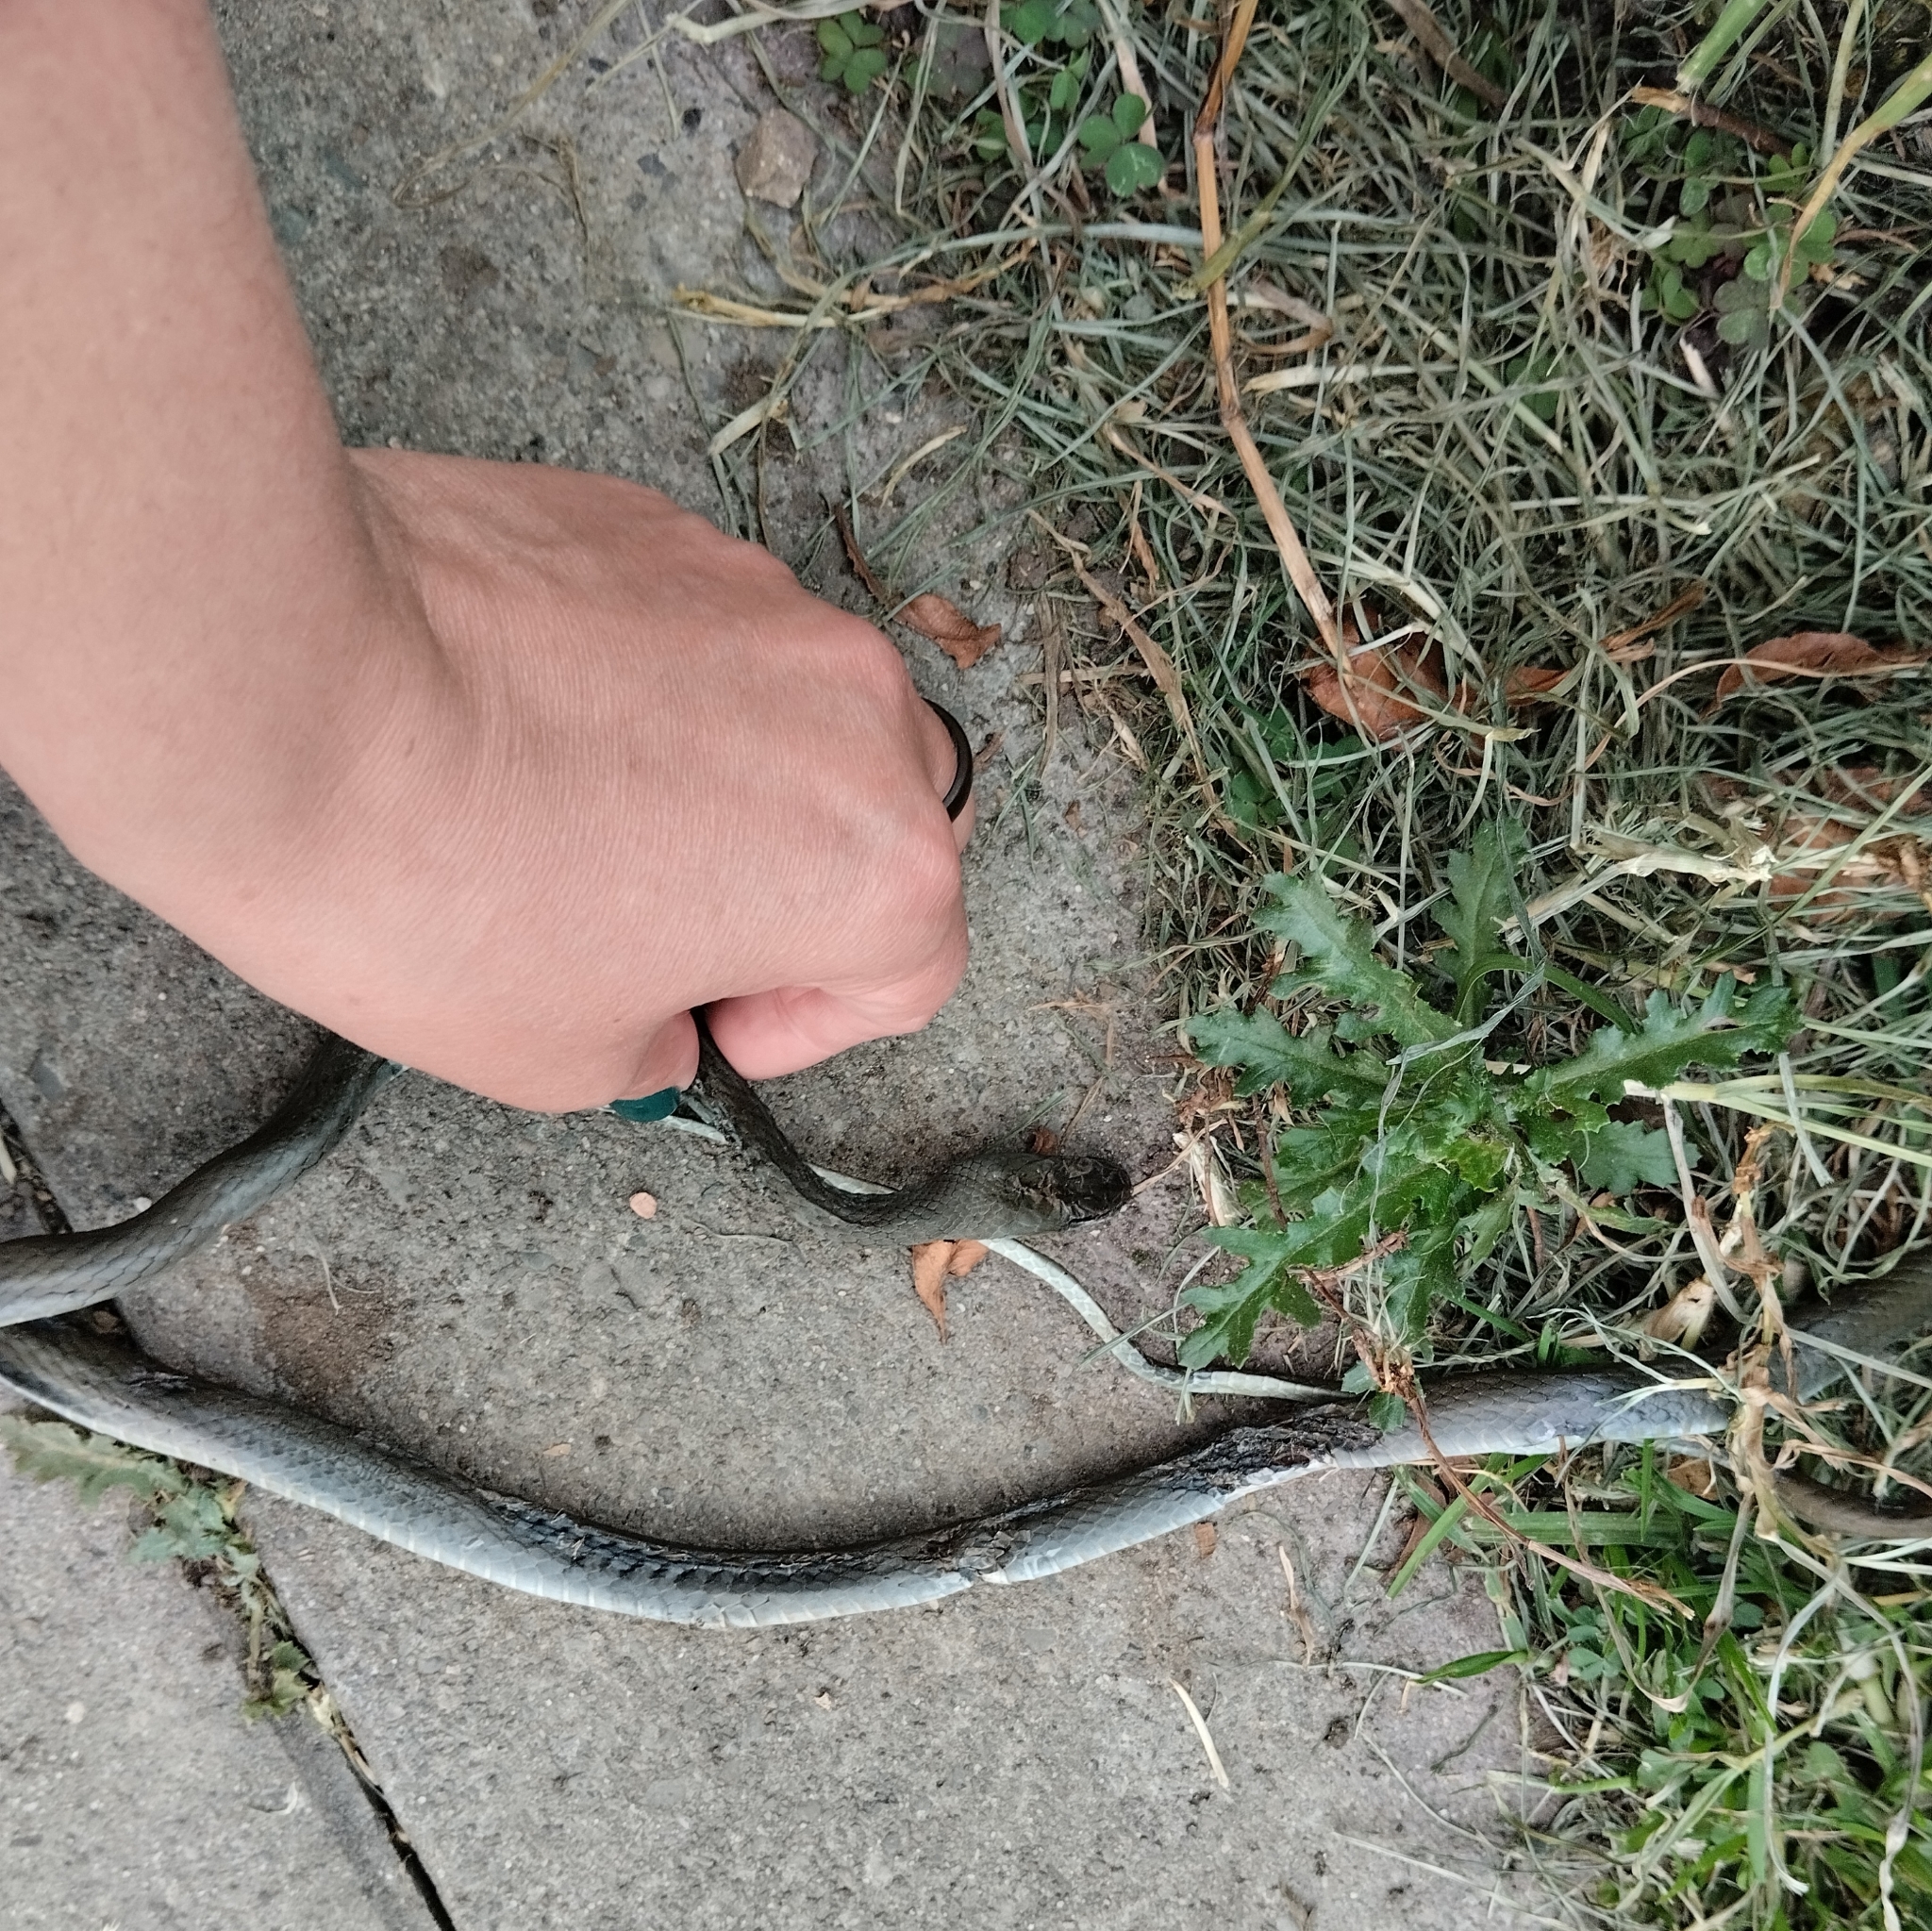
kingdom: Animalia
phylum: Chordata
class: Squamata
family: Colubridae
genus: Mastigodryas
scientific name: Mastigodryas boddaerti
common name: Boddaert's tropical racer
